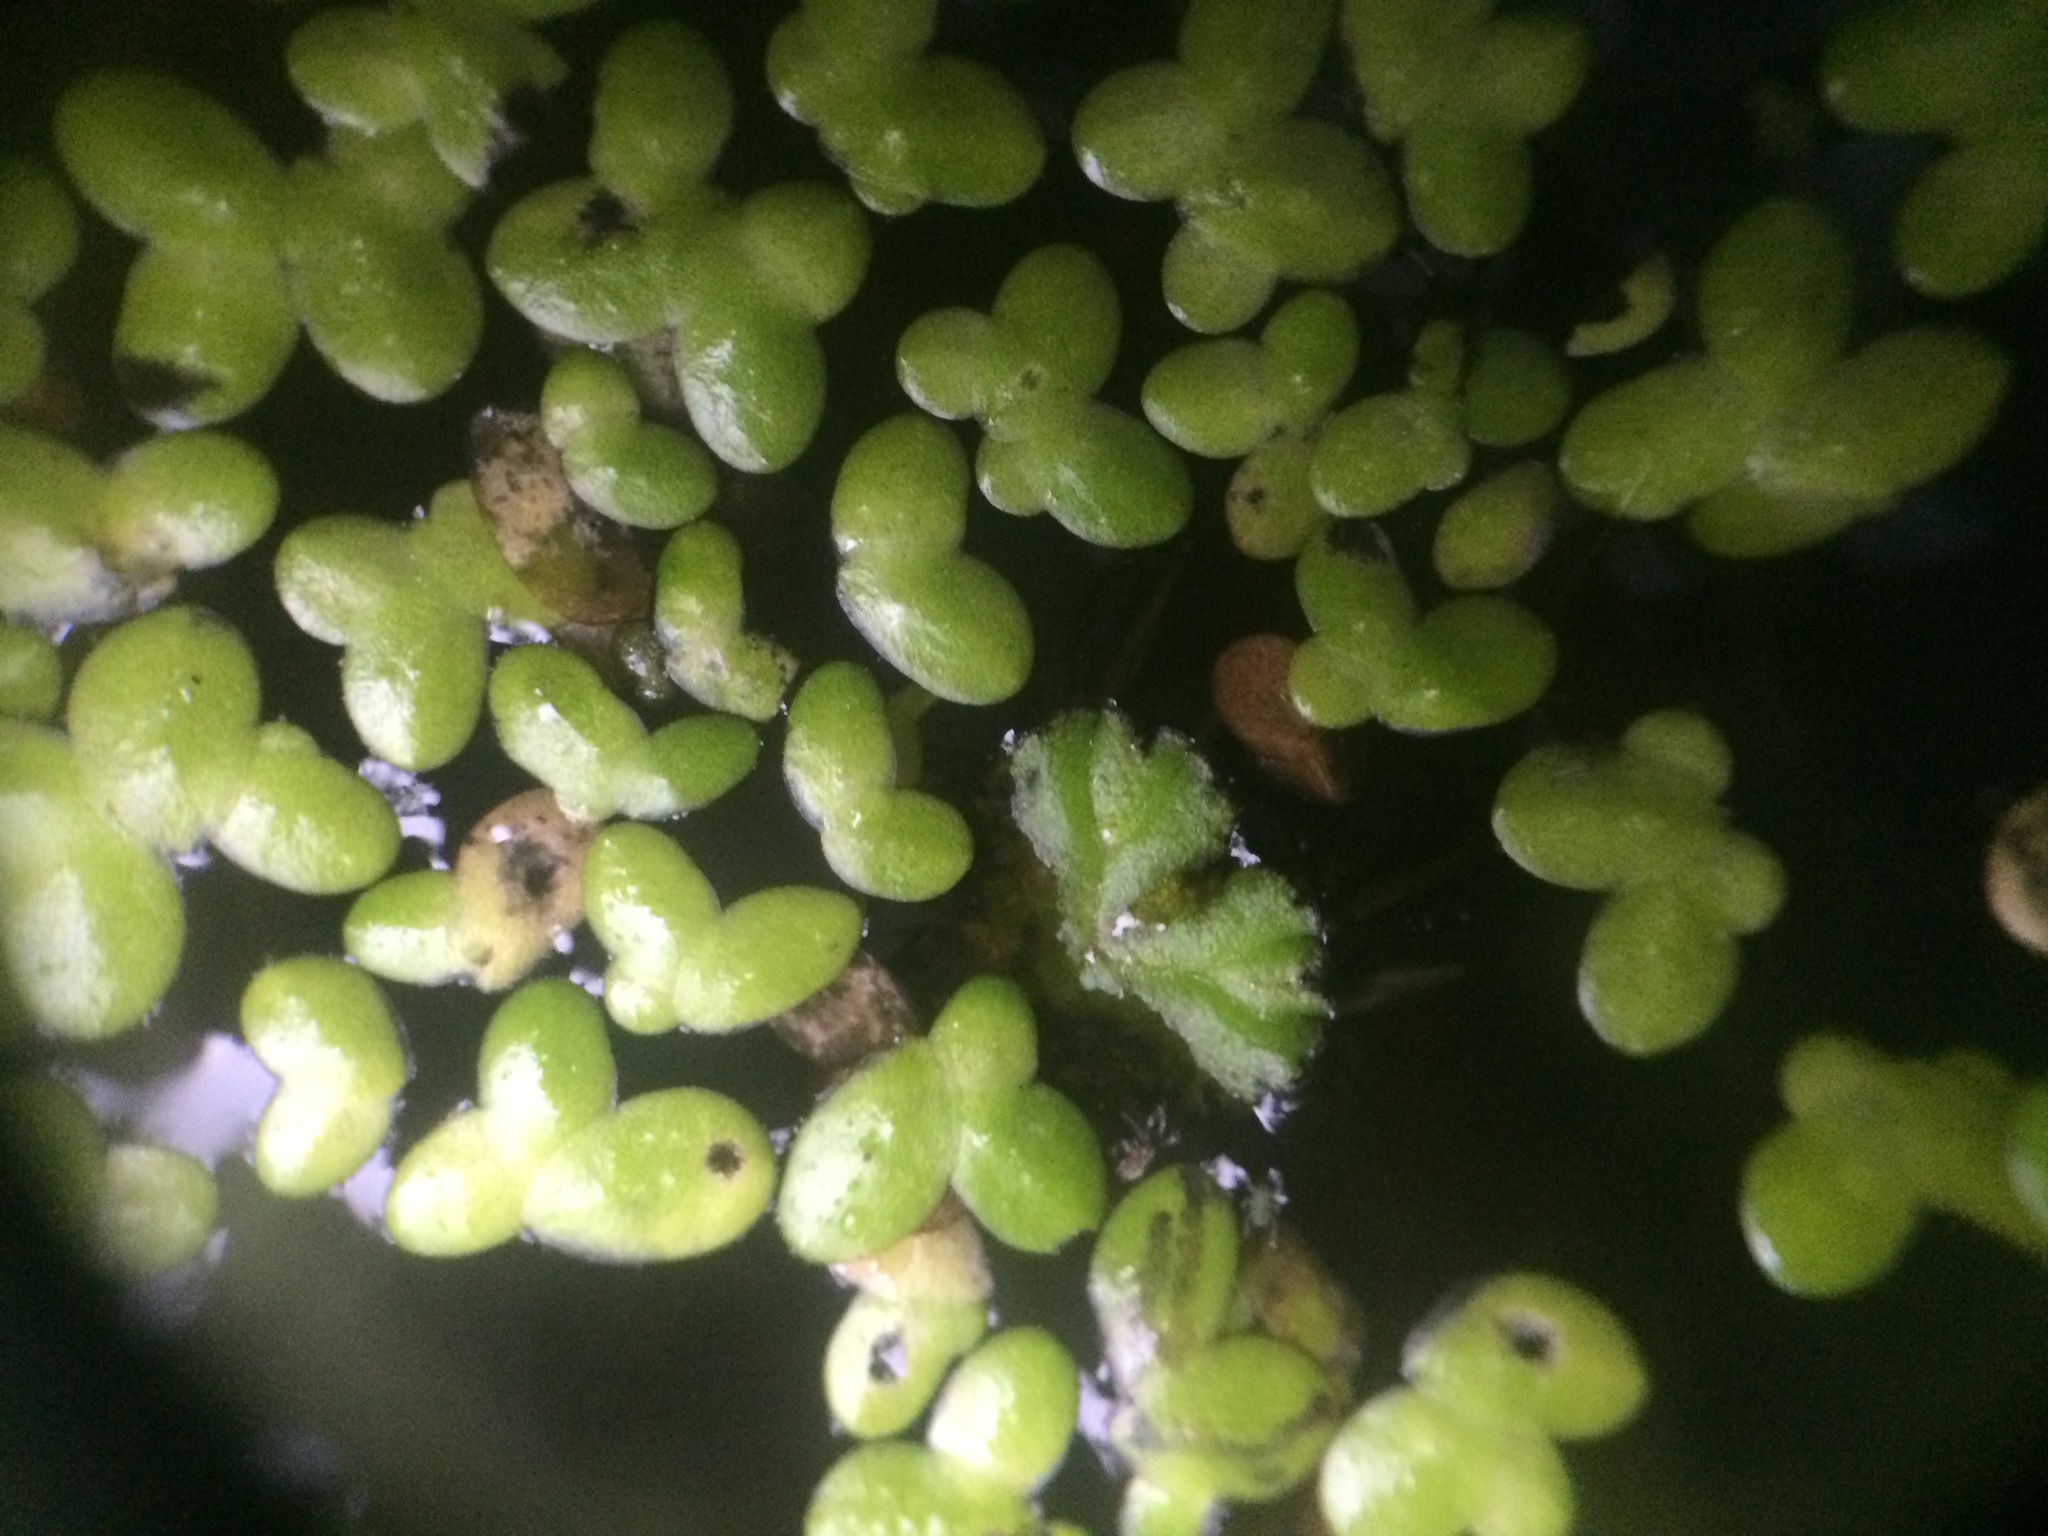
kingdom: Plantae
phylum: Tracheophyta
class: Liliopsida
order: Alismatales
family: Araceae
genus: Lemna
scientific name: Lemna minor
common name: Common duckweed
